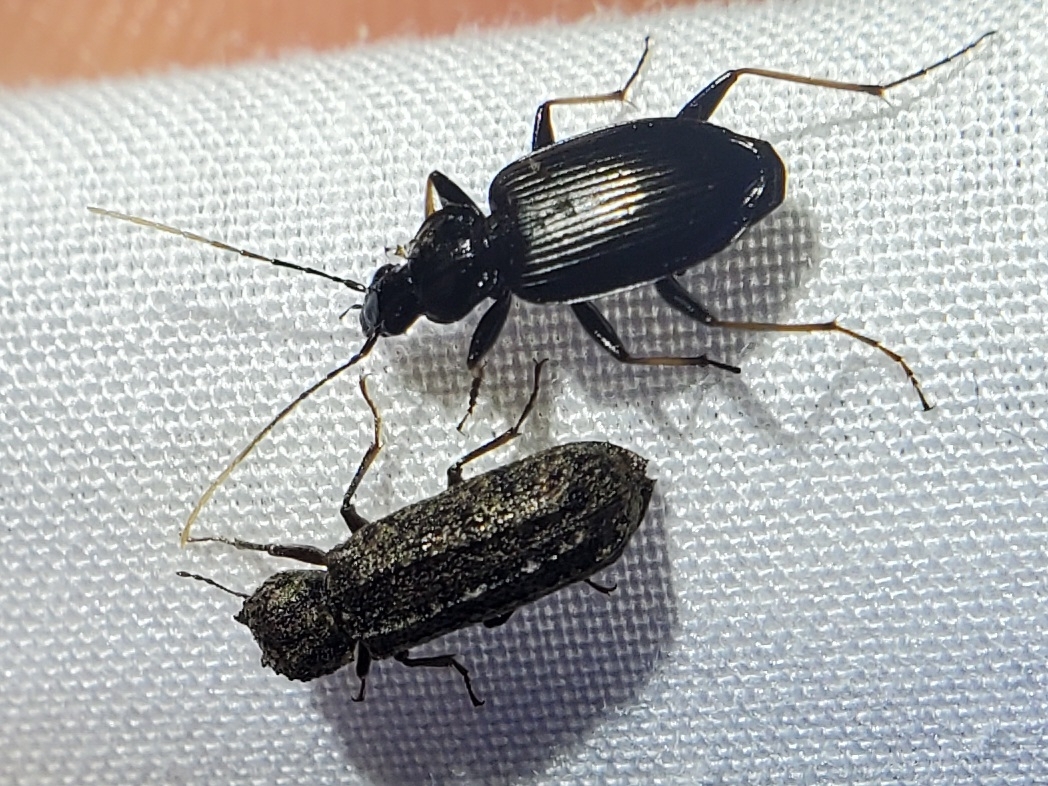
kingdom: Animalia
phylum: Arthropoda
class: Insecta
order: Coleoptera
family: Carabidae
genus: Agonum
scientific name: Agonum albicrus
